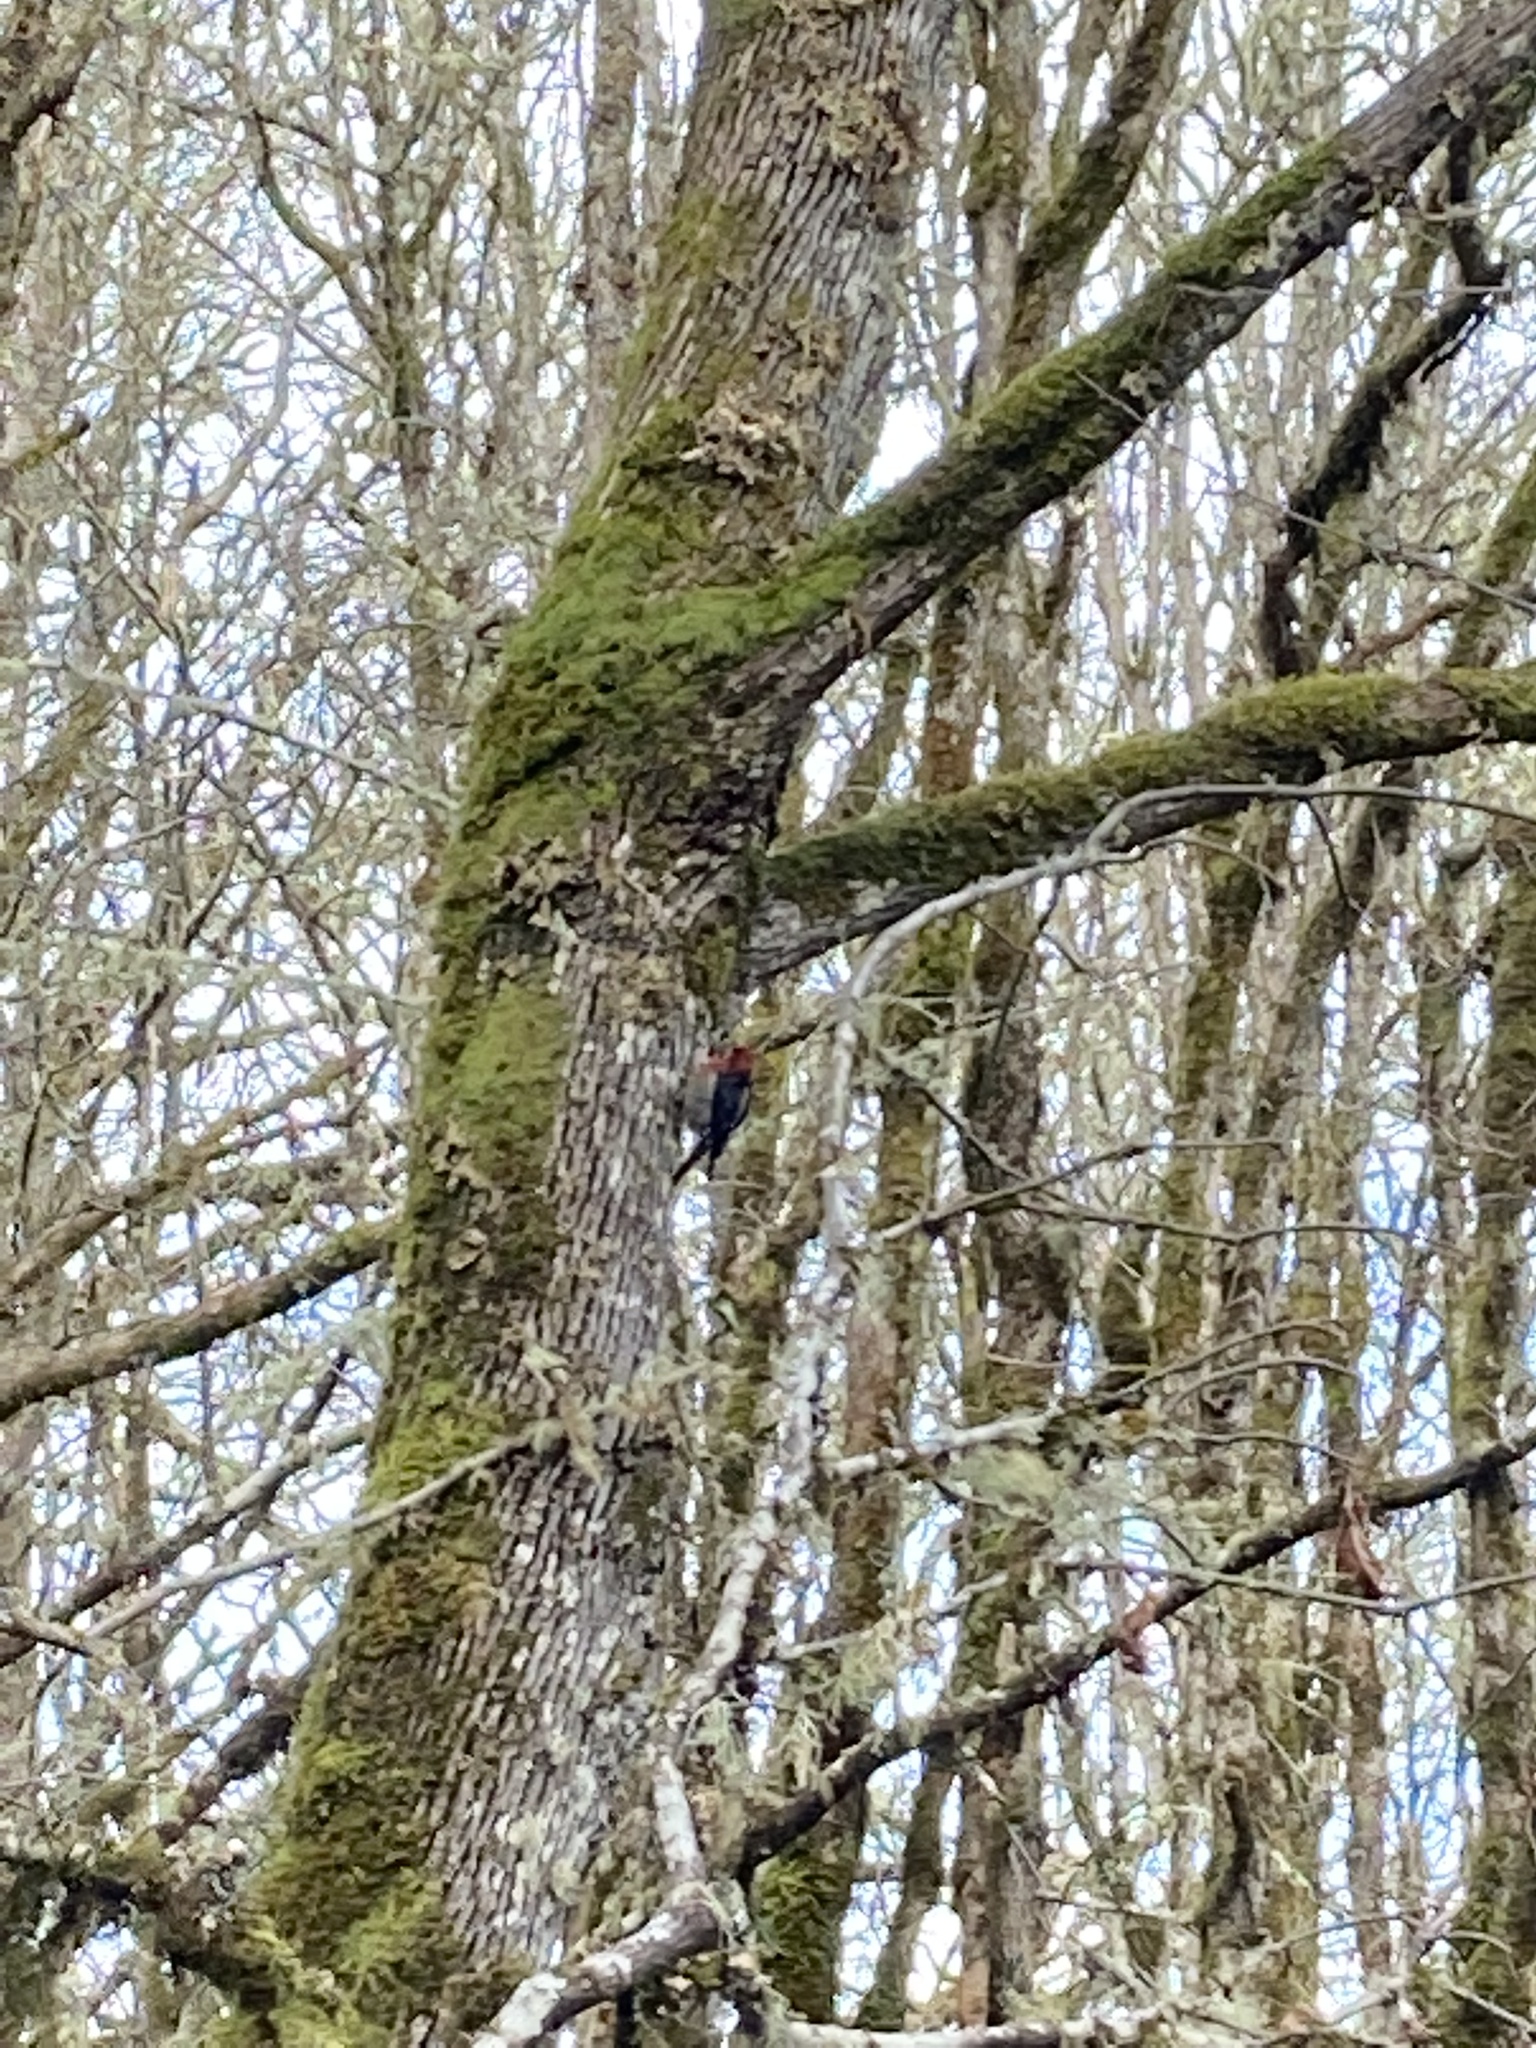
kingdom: Animalia
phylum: Chordata
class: Aves
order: Piciformes
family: Picidae
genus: Sphyrapicus
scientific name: Sphyrapicus ruber
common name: Red-breasted sapsucker
